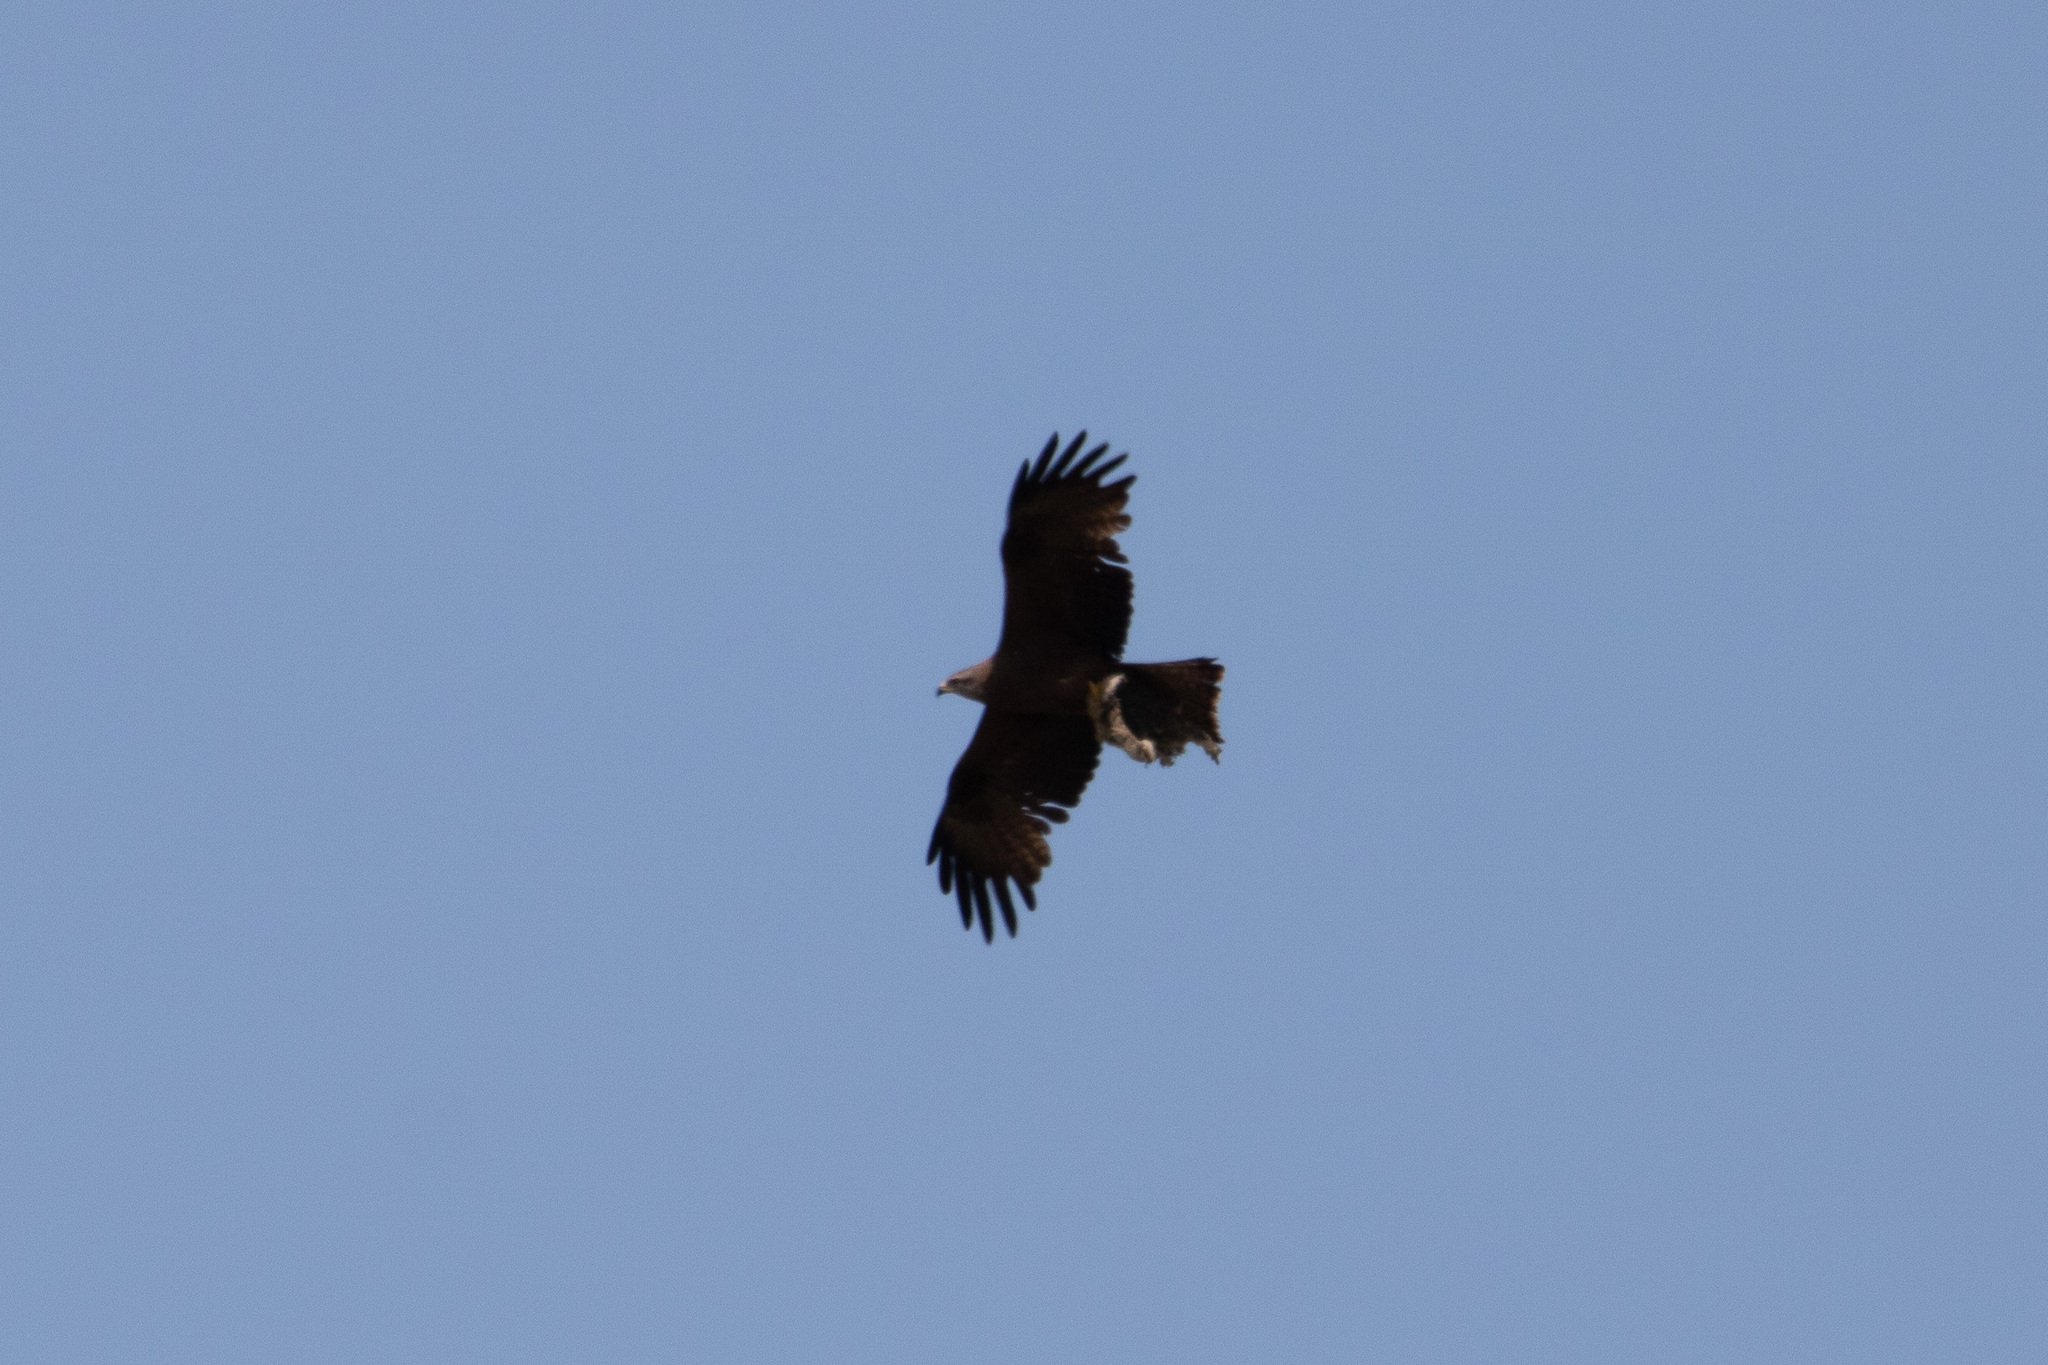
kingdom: Animalia
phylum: Chordata
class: Aves
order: Accipitriformes
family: Accipitridae
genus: Milvus
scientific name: Milvus migrans
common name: Black kite
